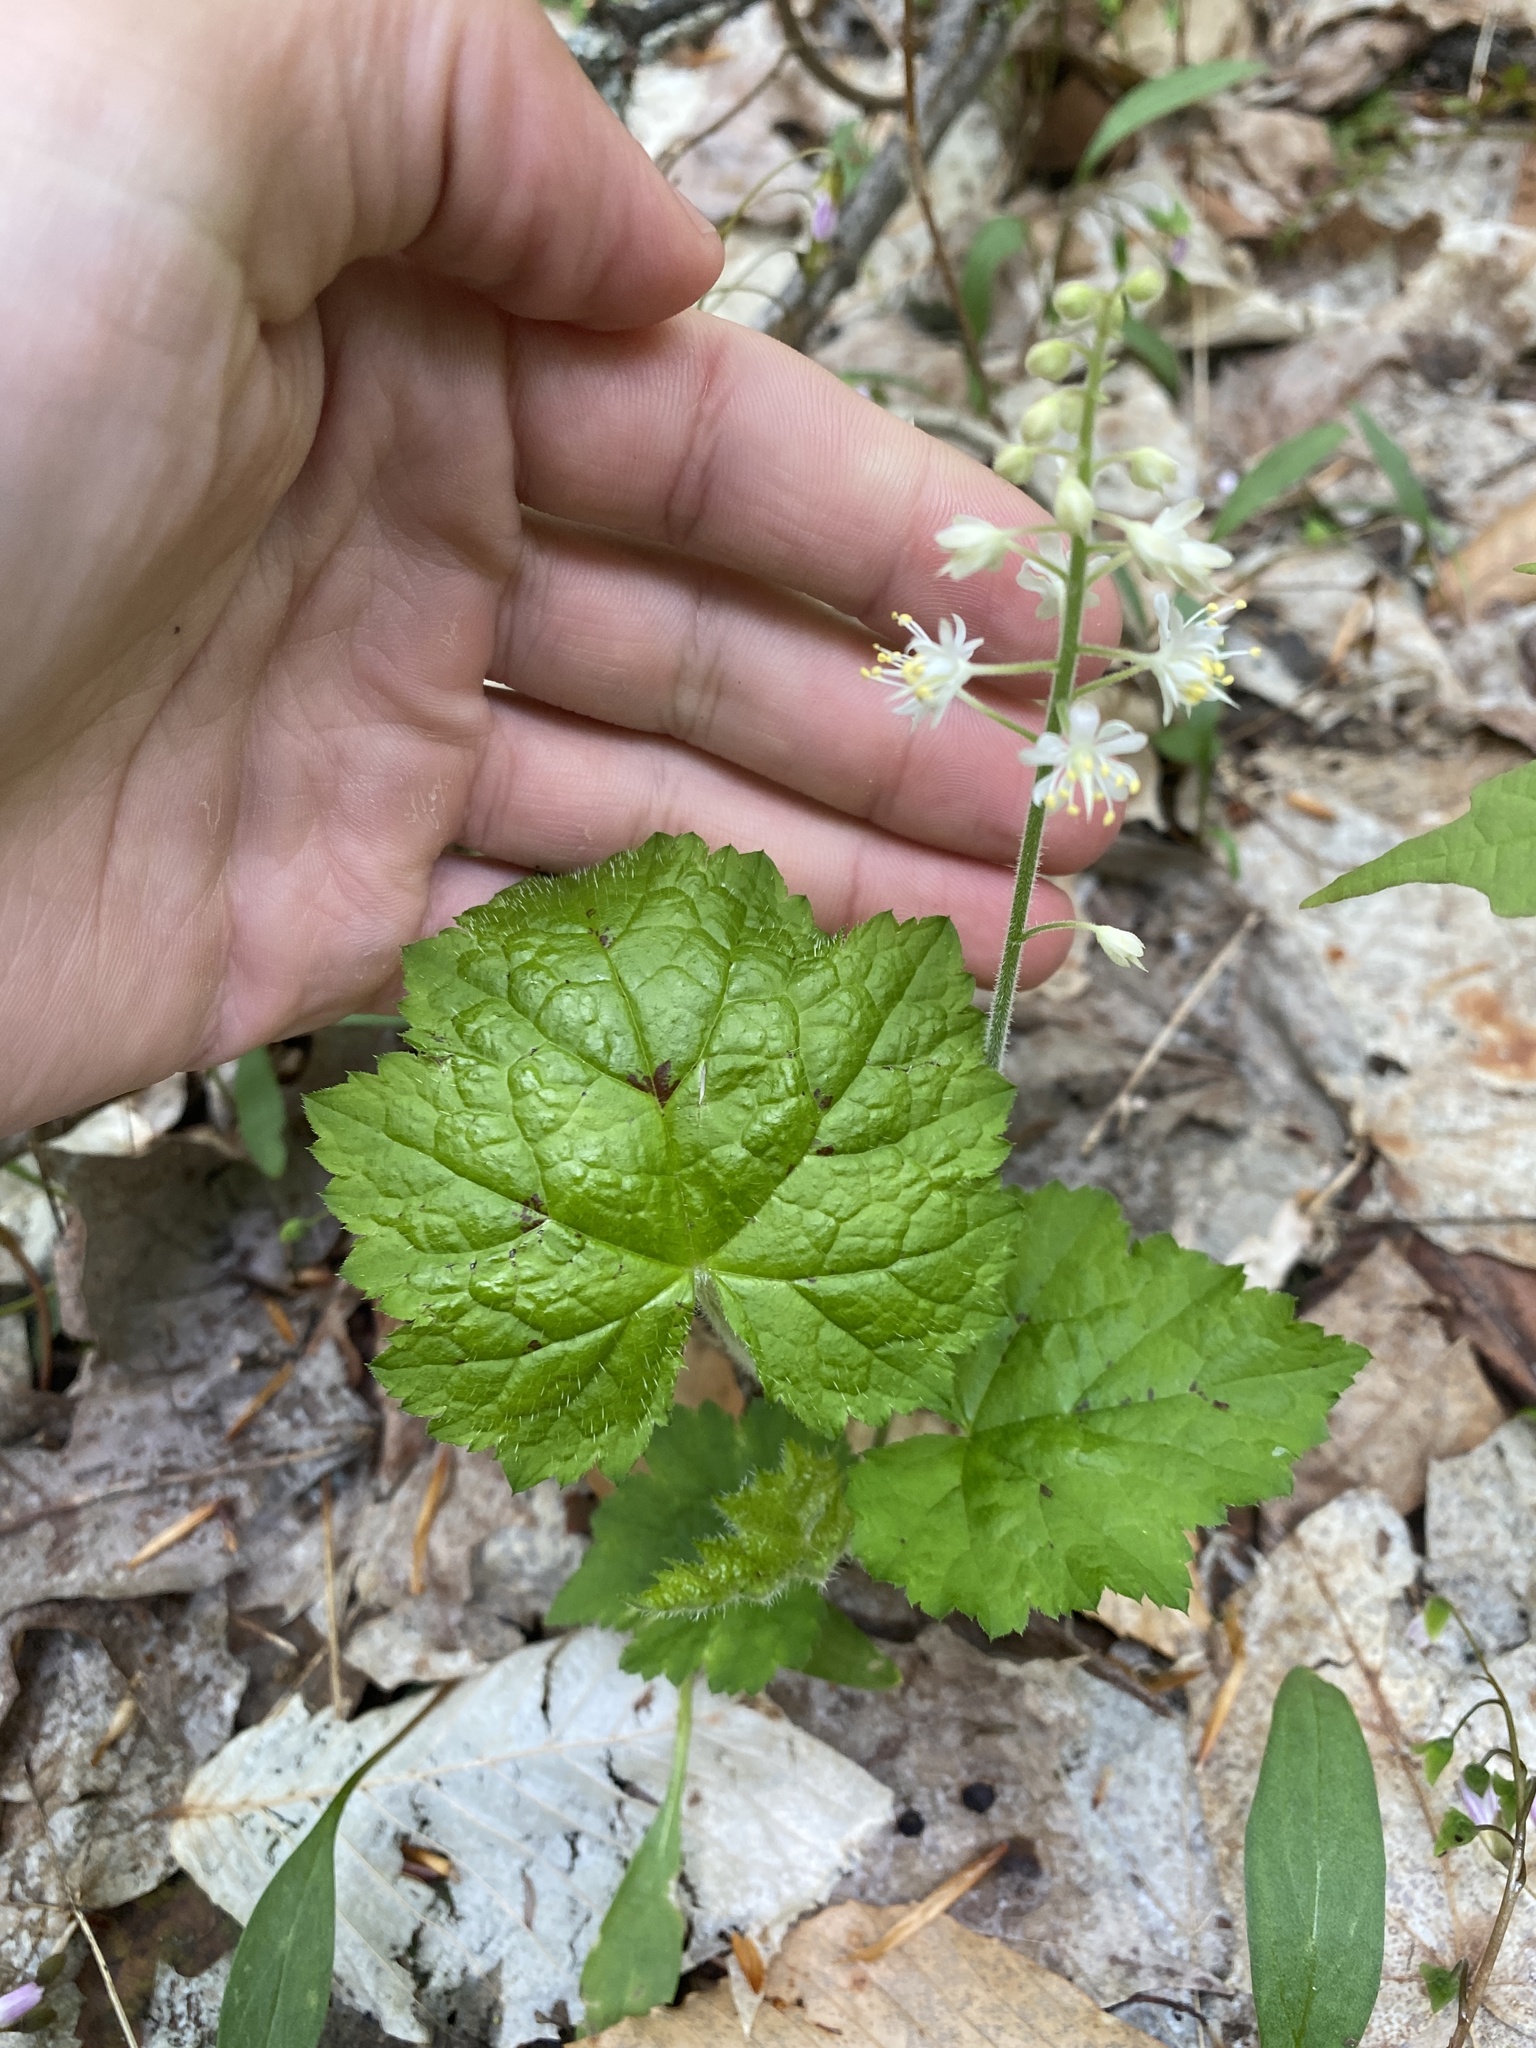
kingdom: Plantae
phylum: Tracheophyta
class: Magnoliopsida
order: Saxifragales
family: Saxifragaceae
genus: Tiarella
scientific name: Tiarella stolonifera
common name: Stoloniferous foamflower
